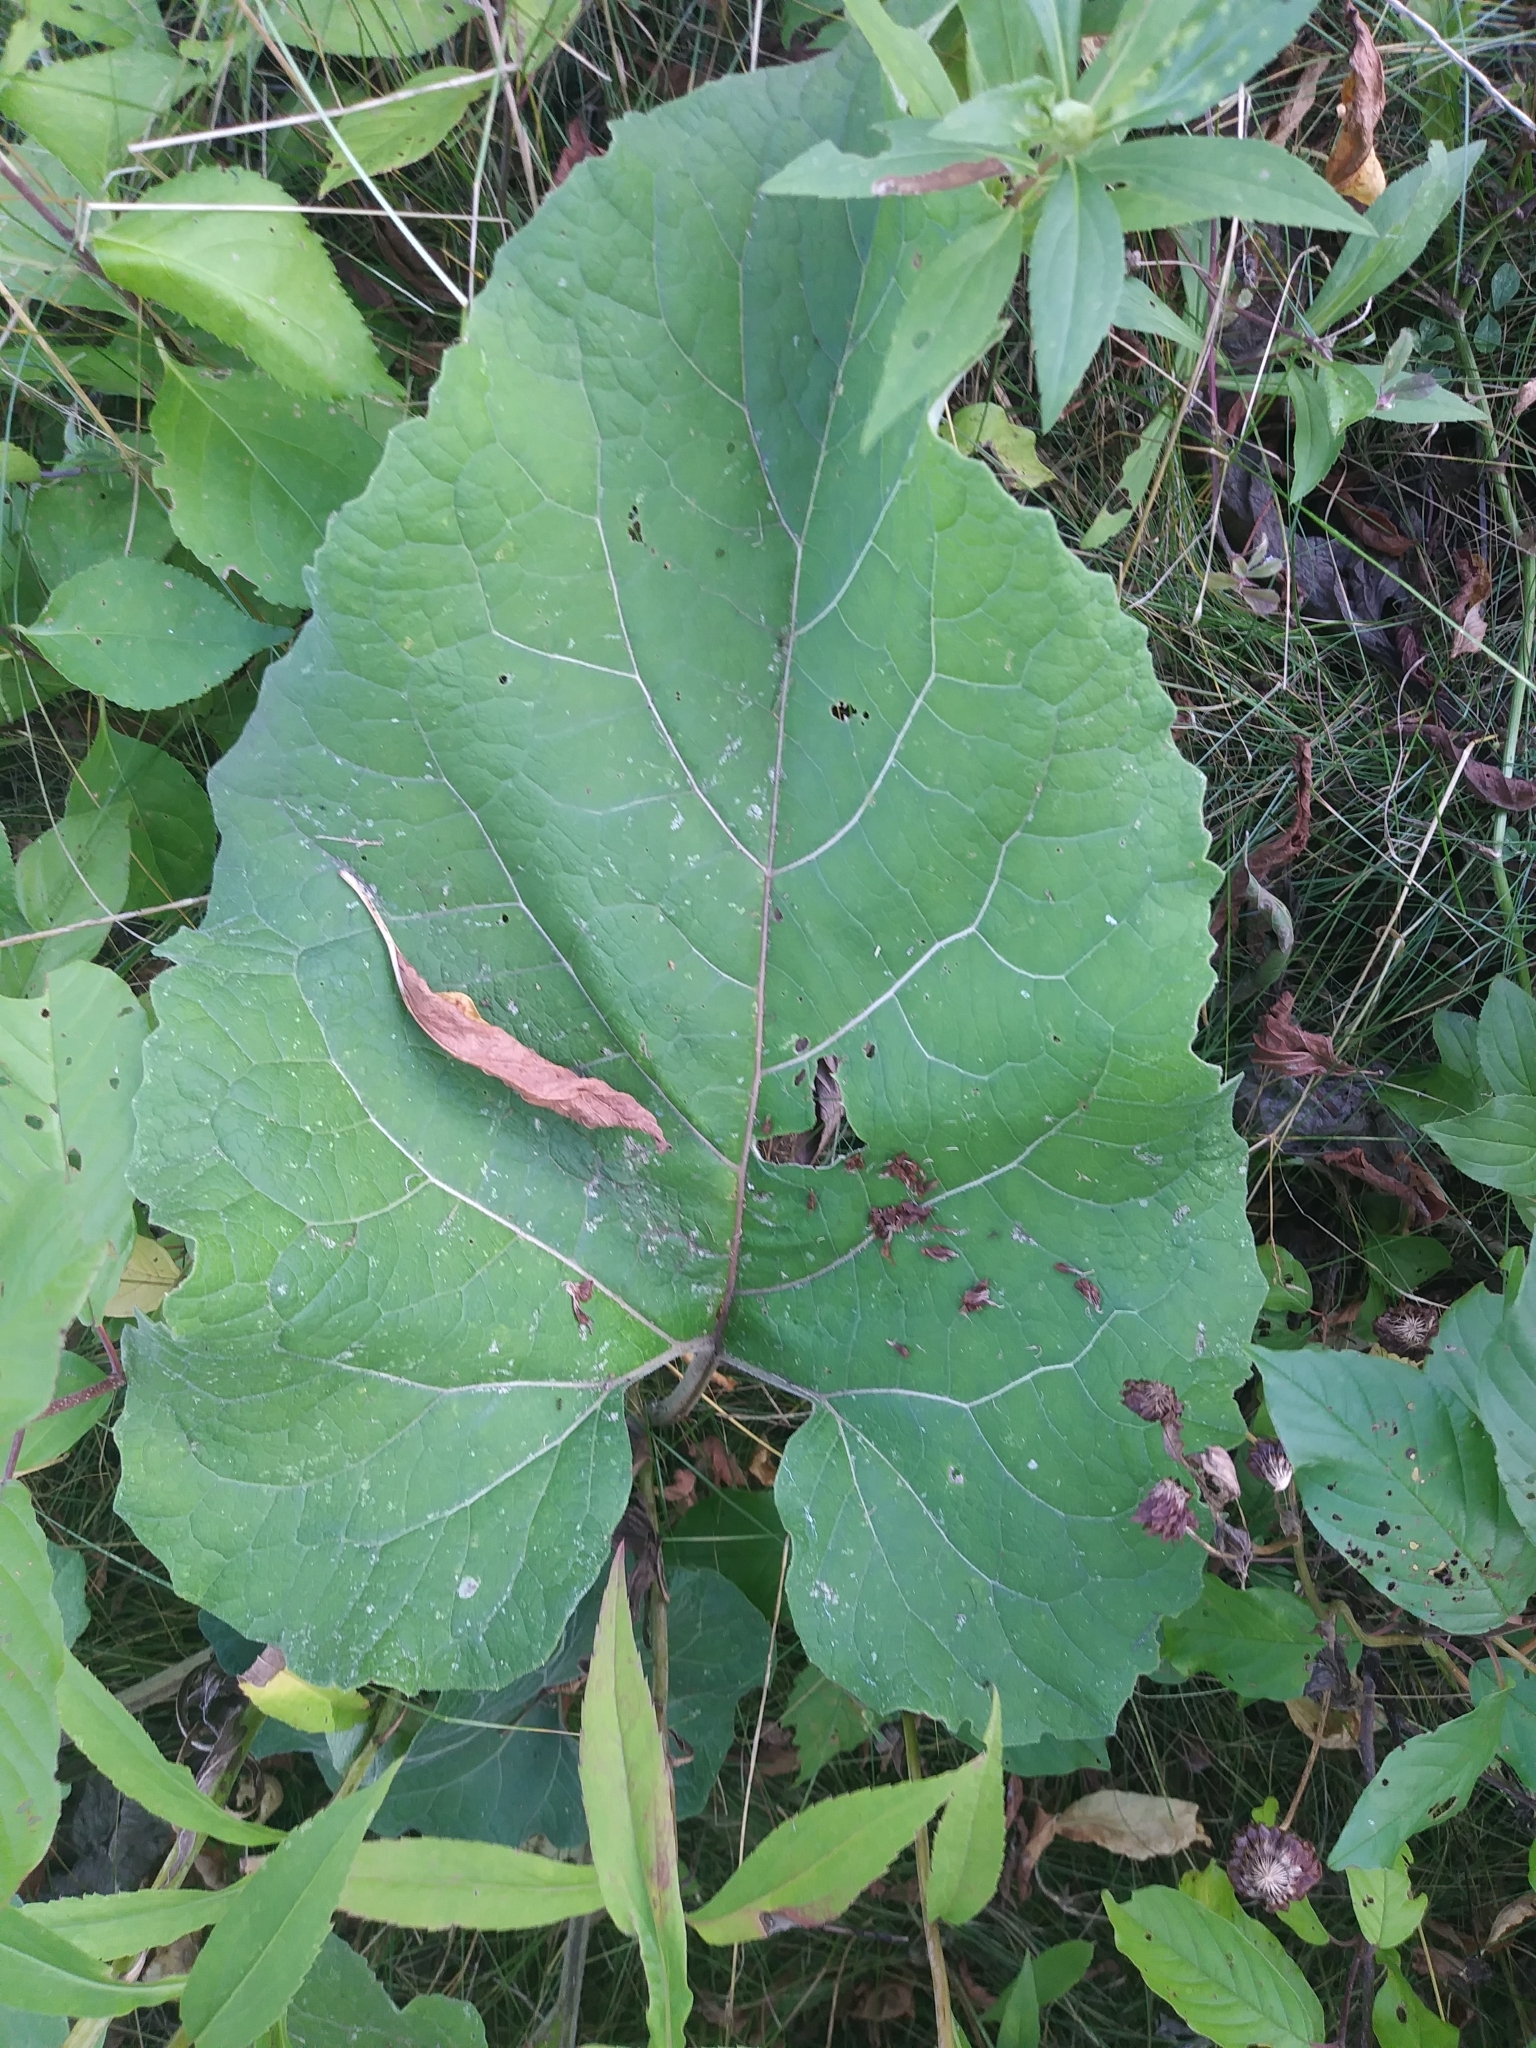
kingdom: Plantae
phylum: Tracheophyta
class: Magnoliopsida
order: Asterales
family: Asteraceae
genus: Arctium
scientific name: Arctium
